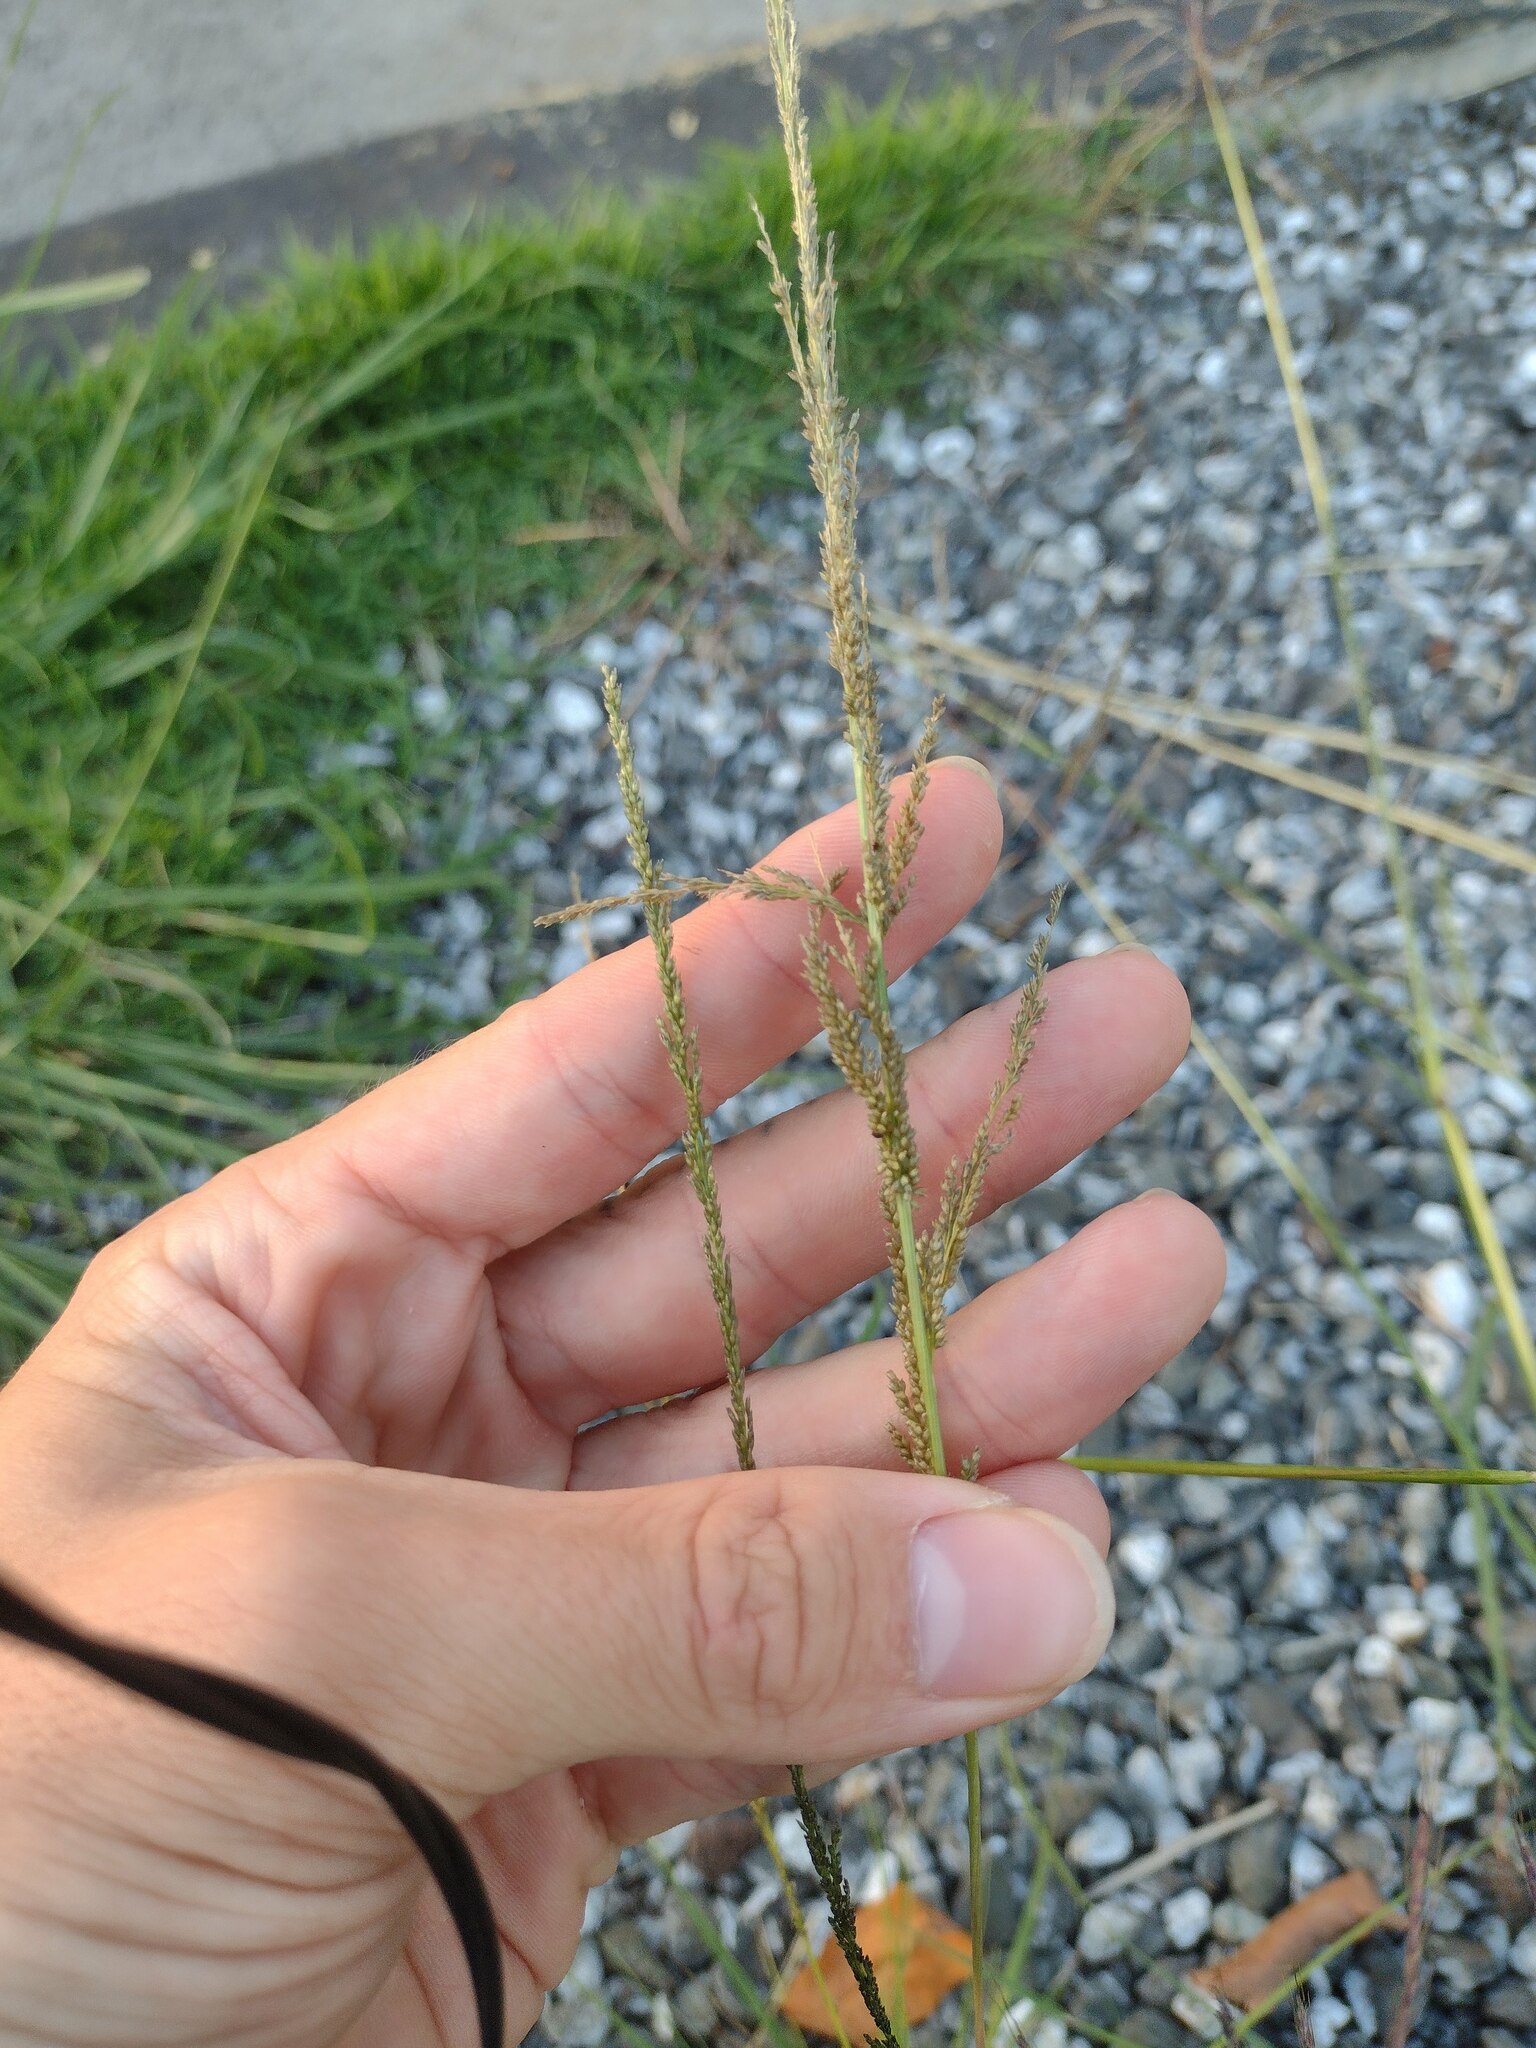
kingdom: Plantae
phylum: Tracheophyta
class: Liliopsida
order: Poales
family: Poaceae
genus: Sporobolus
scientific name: Sporobolus elongatus
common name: Rat tail grass
